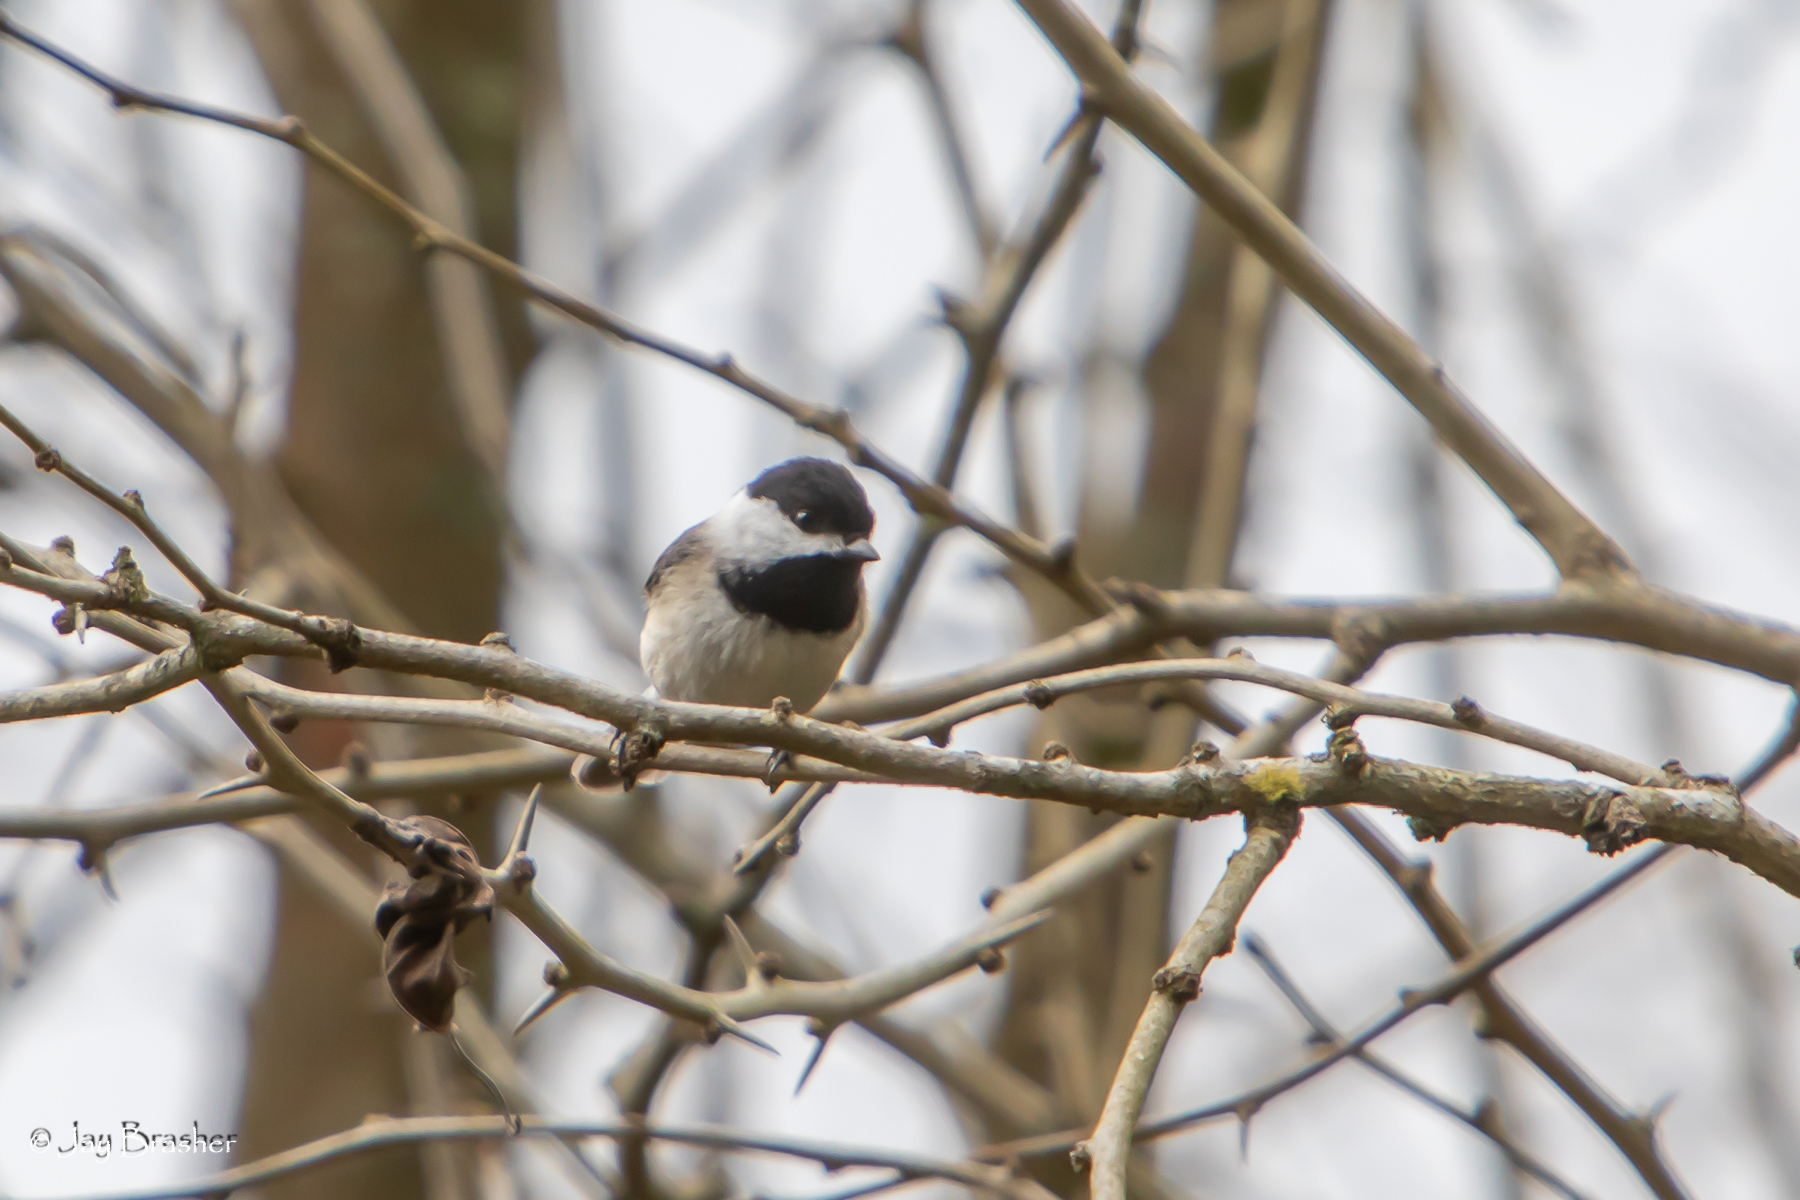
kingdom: Animalia
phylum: Chordata
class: Aves
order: Passeriformes
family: Paridae
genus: Poecile
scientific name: Poecile carolinensis
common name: Carolina chickadee
